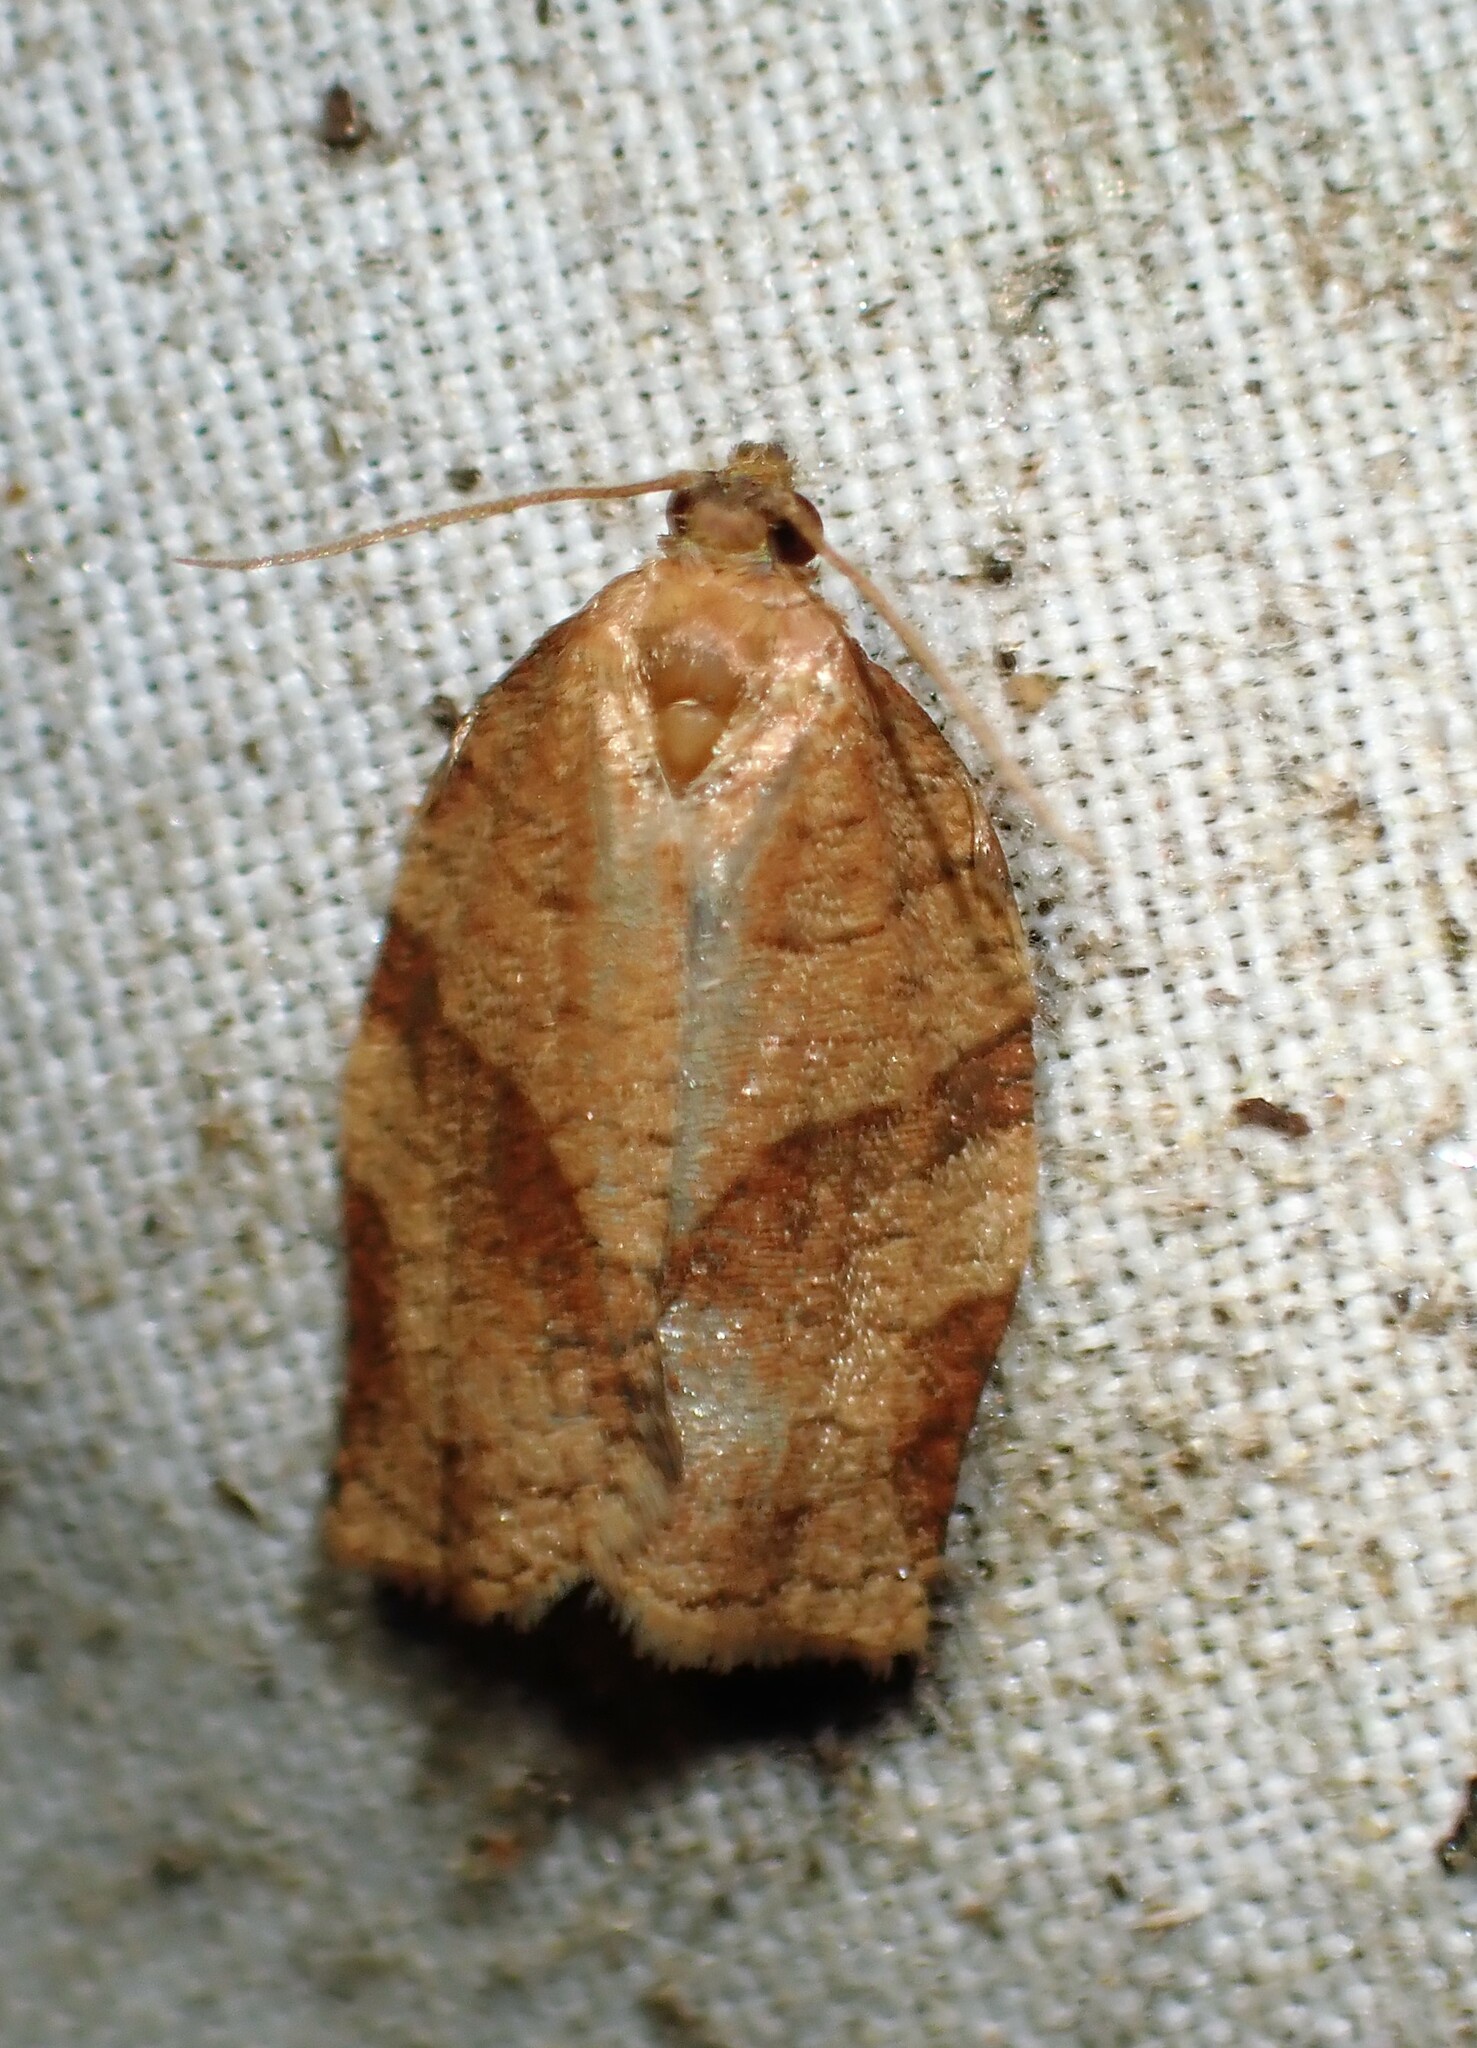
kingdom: Animalia
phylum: Arthropoda
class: Insecta
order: Lepidoptera
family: Tortricidae
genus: Choristoneura
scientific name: Choristoneura rosaceana
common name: Oblique-banded leafroller moth
